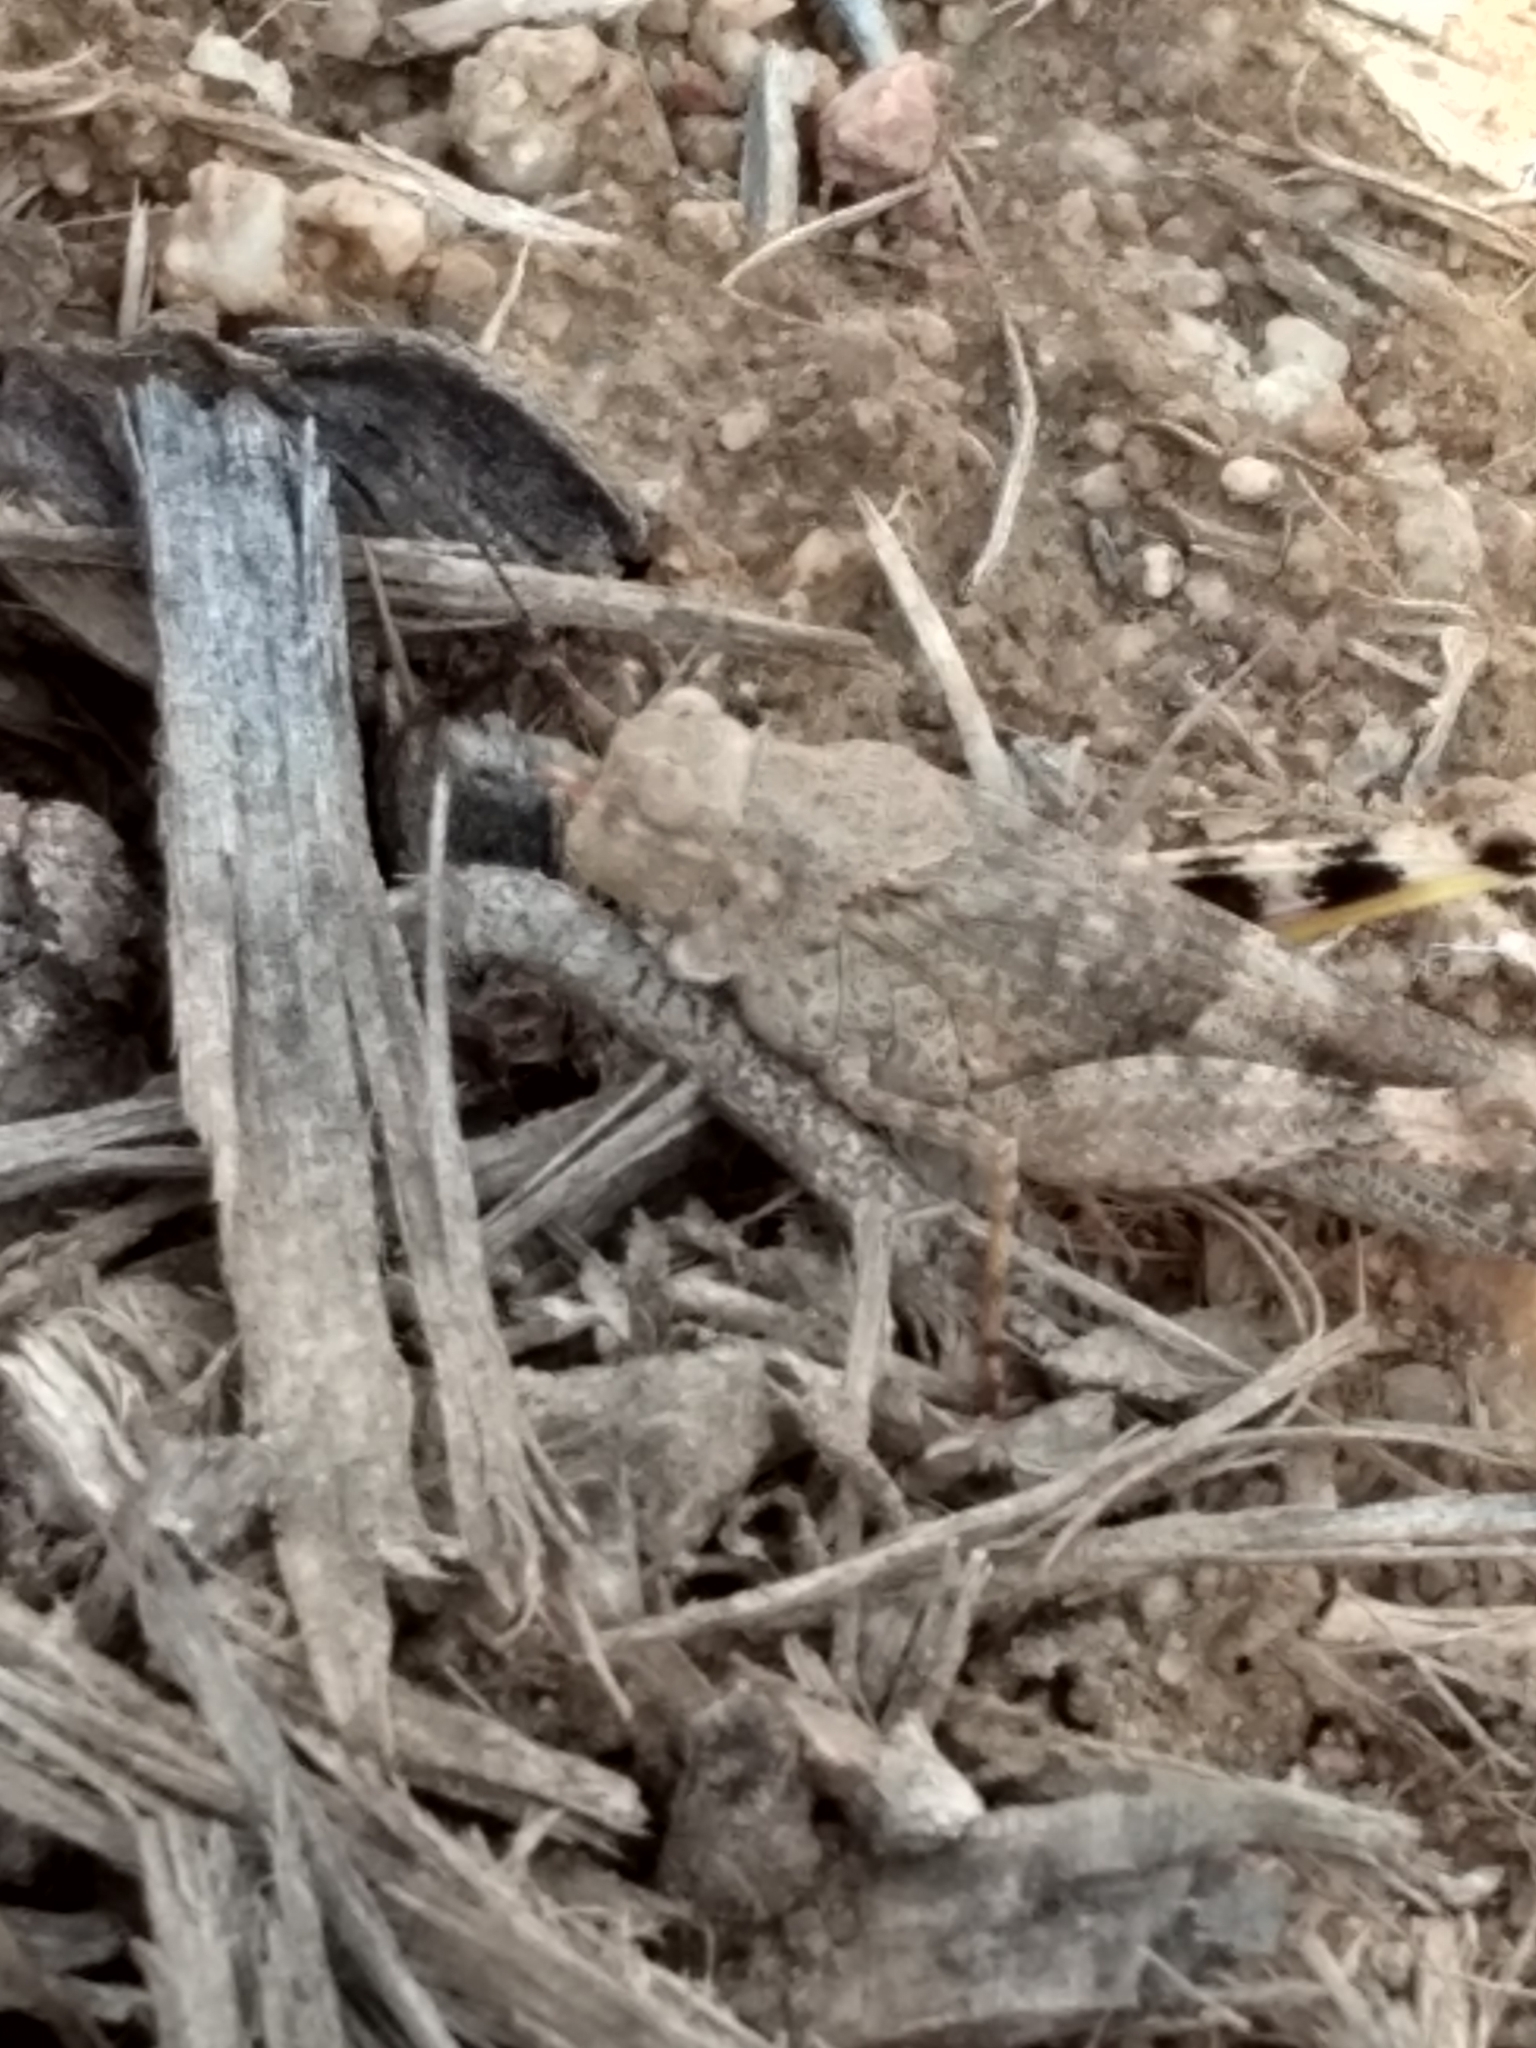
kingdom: Animalia
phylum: Arthropoda
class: Insecta
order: Orthoptera
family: Acrididae
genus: Trimerotropis
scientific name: Trimerotropis pallidipennis
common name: Pallid-winged grasshopper
